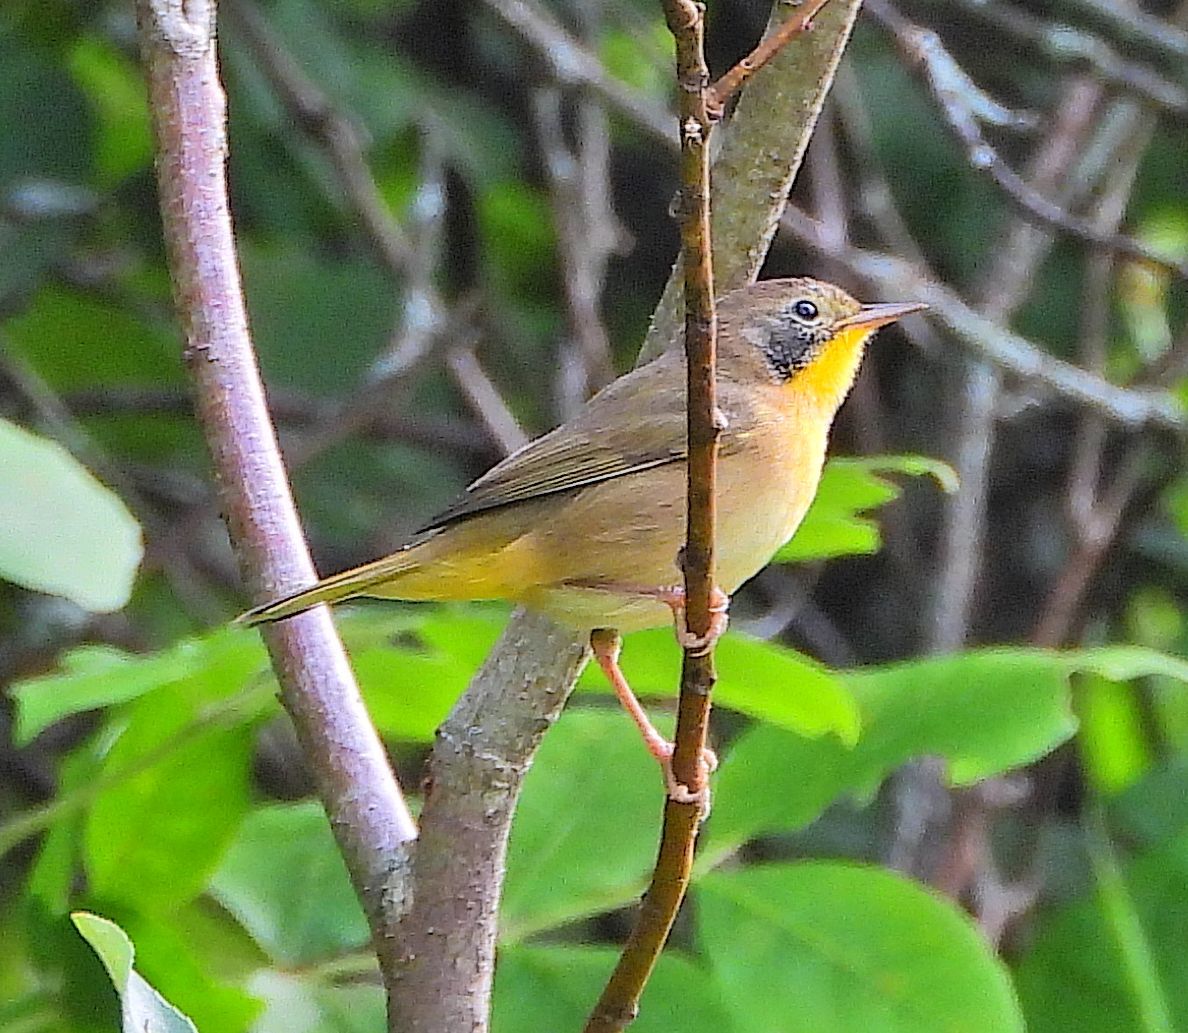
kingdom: Animalia
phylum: Chordata
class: Aves
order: Passeriformes
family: Parulidae
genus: Geothlypis
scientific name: Geothlypis trichas
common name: Common yellowthroat
